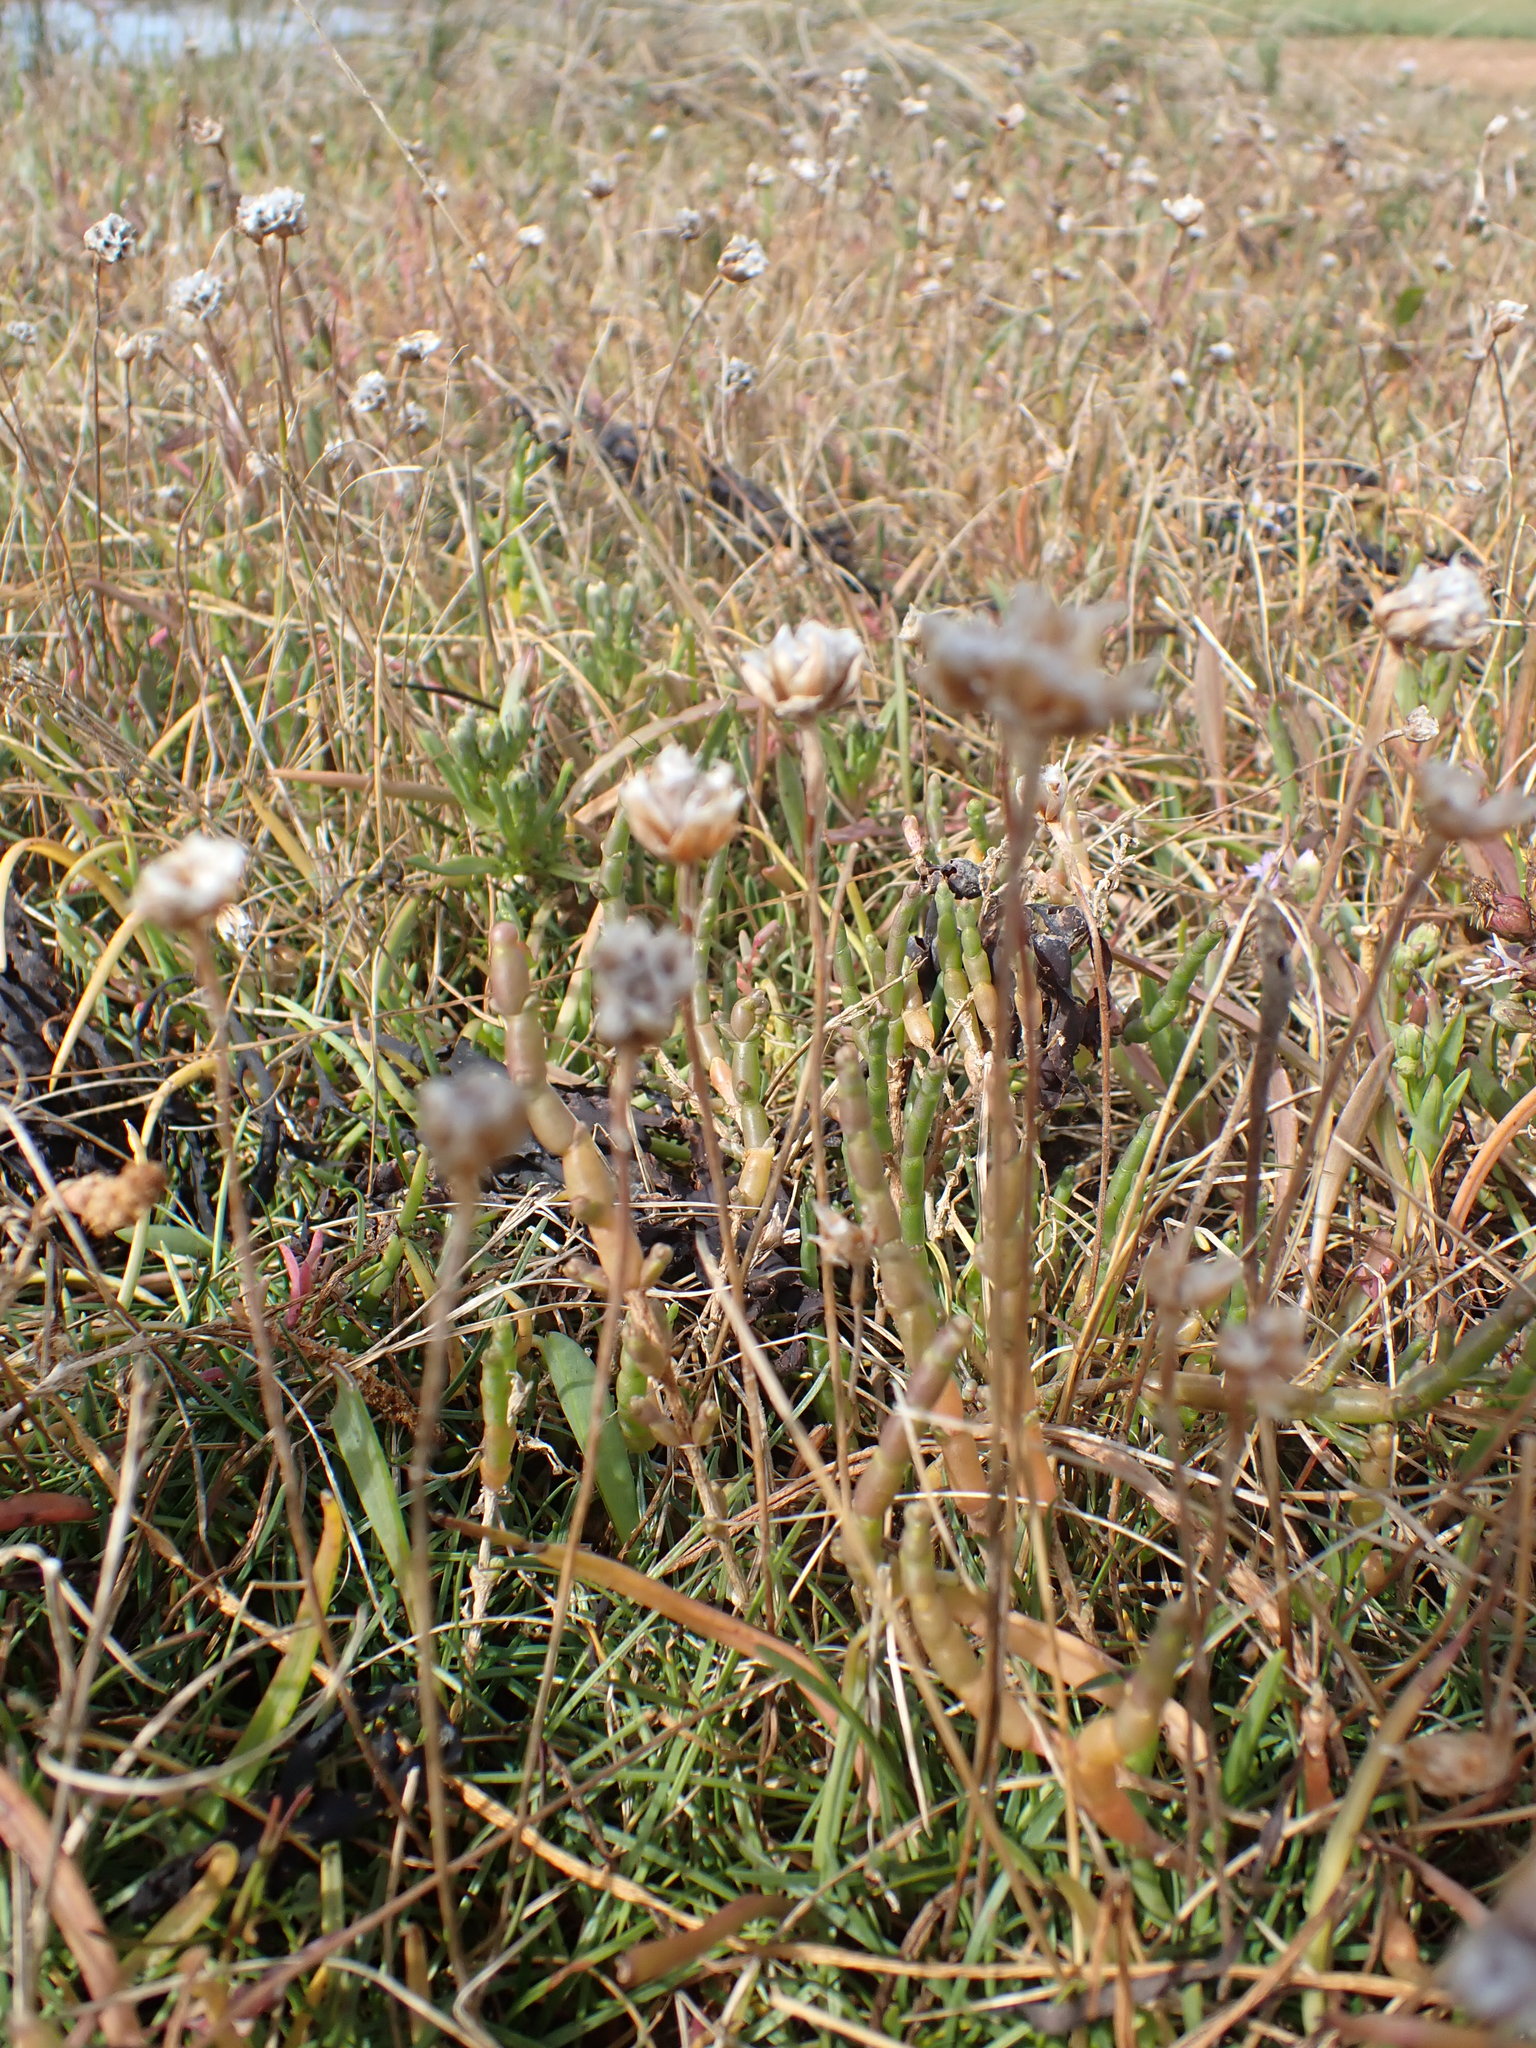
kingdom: Plantae
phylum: Tracheophyta
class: Magnoliopsida
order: Caryophyllales
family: Plumbaginaceae
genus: Armeria
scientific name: Armeria maritima
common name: Thrift
